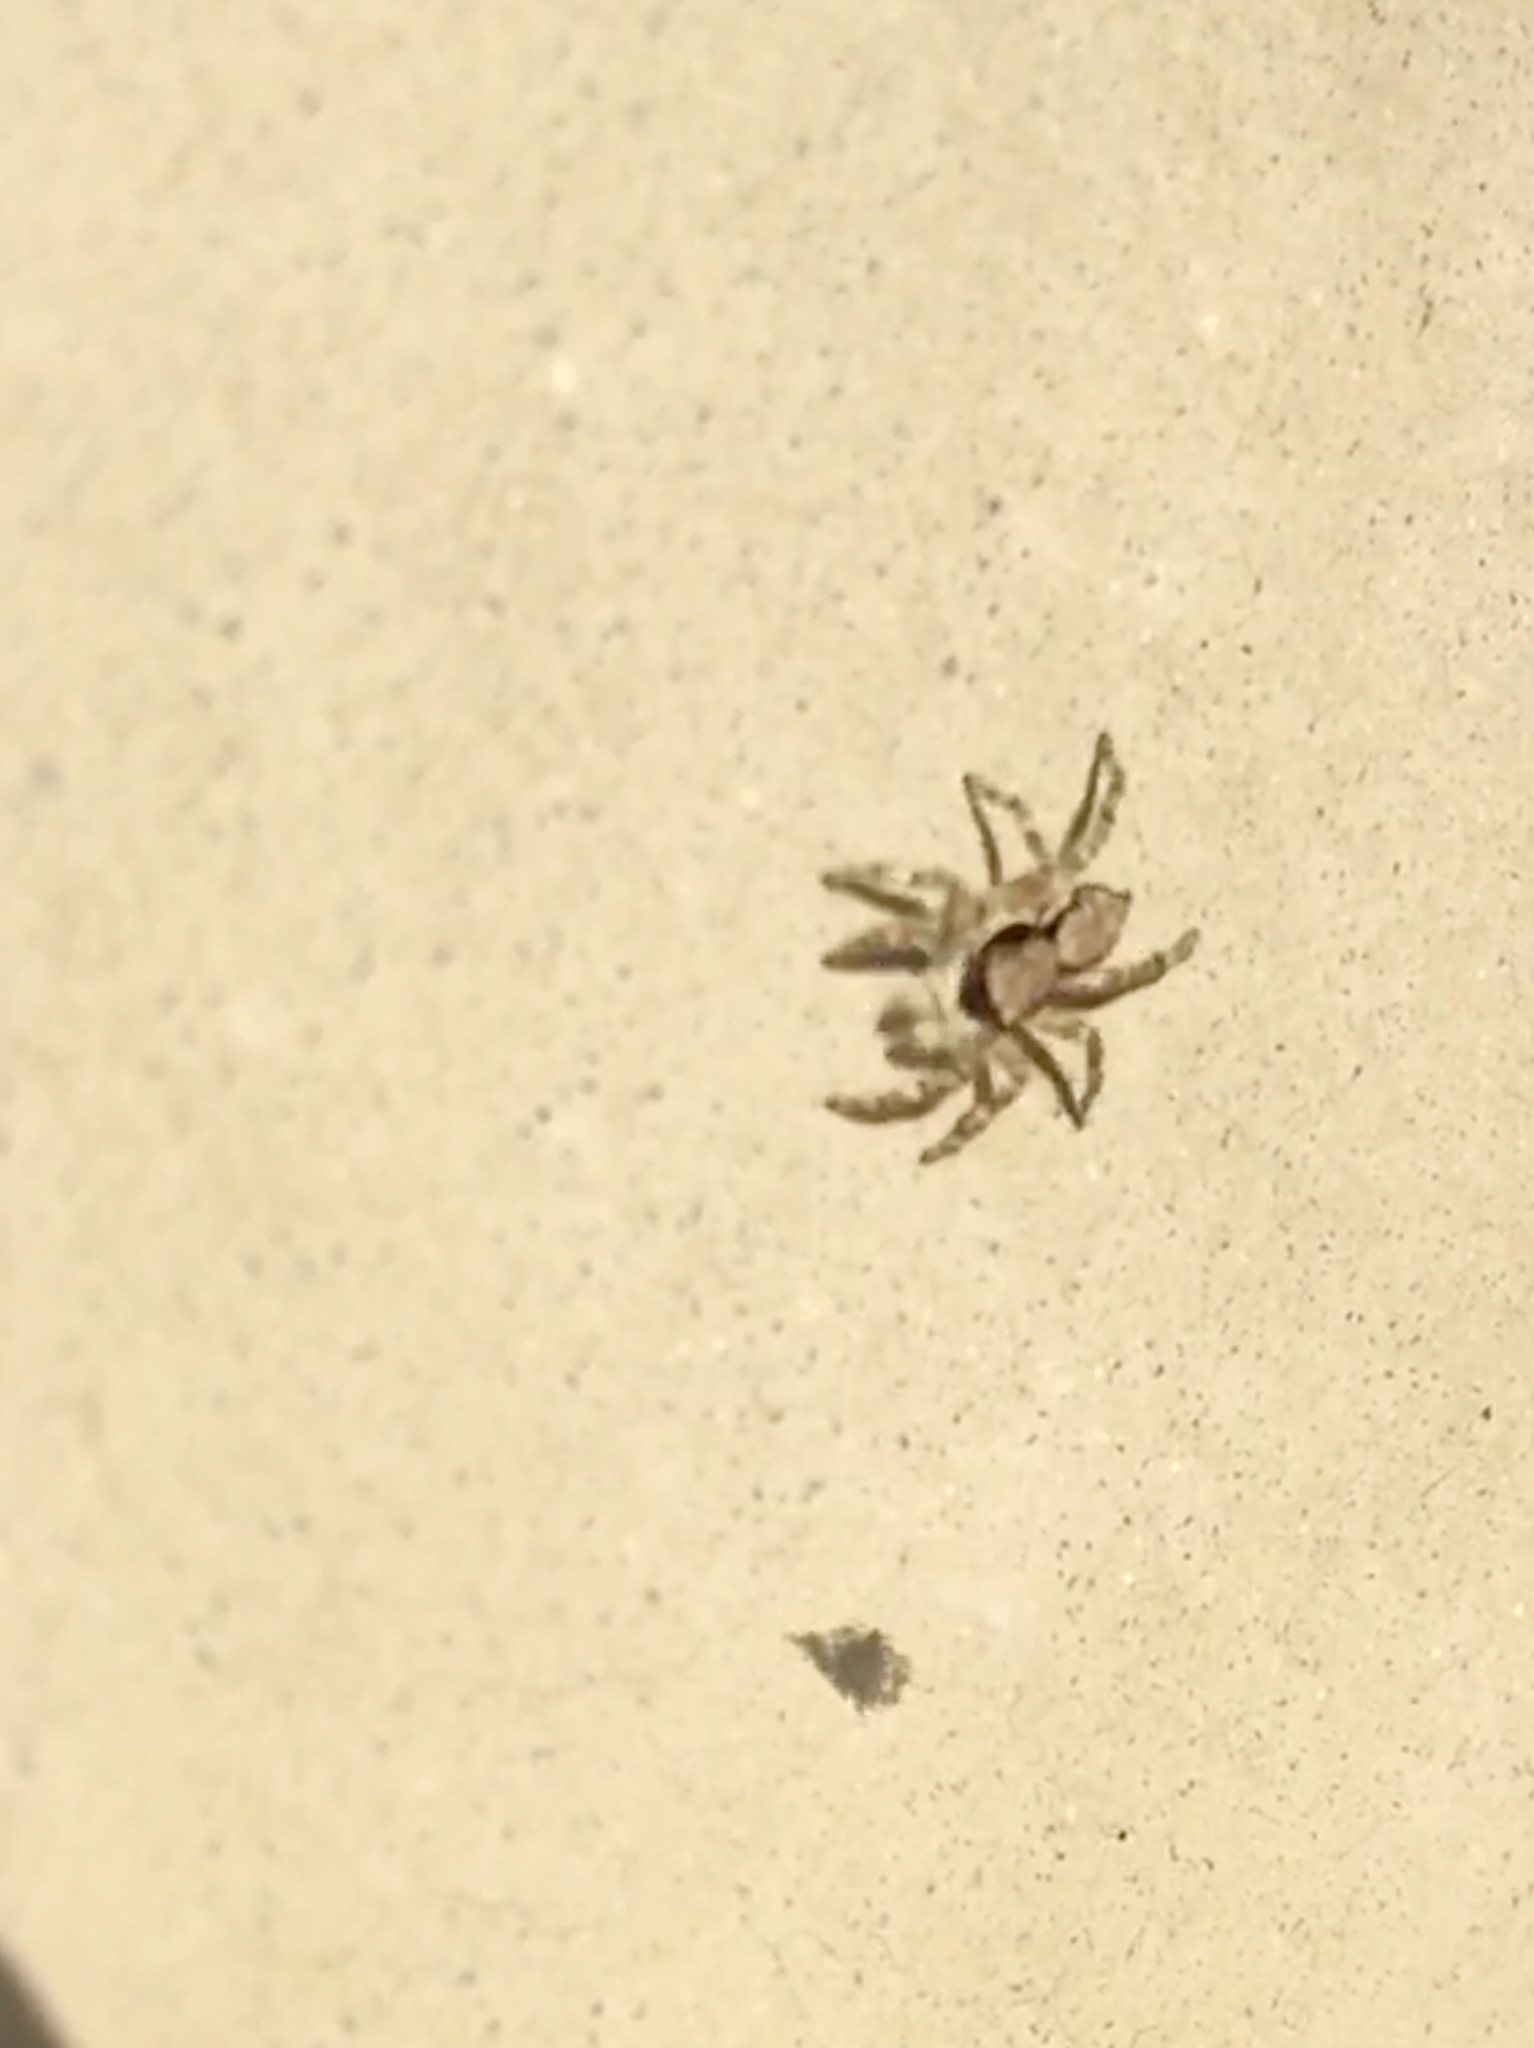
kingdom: Animalia
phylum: Arthropoda
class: Arachnida
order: Araneae
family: Salticidae
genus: Menemerus
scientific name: Menemerus bivittatus
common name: Gray wall jumper
